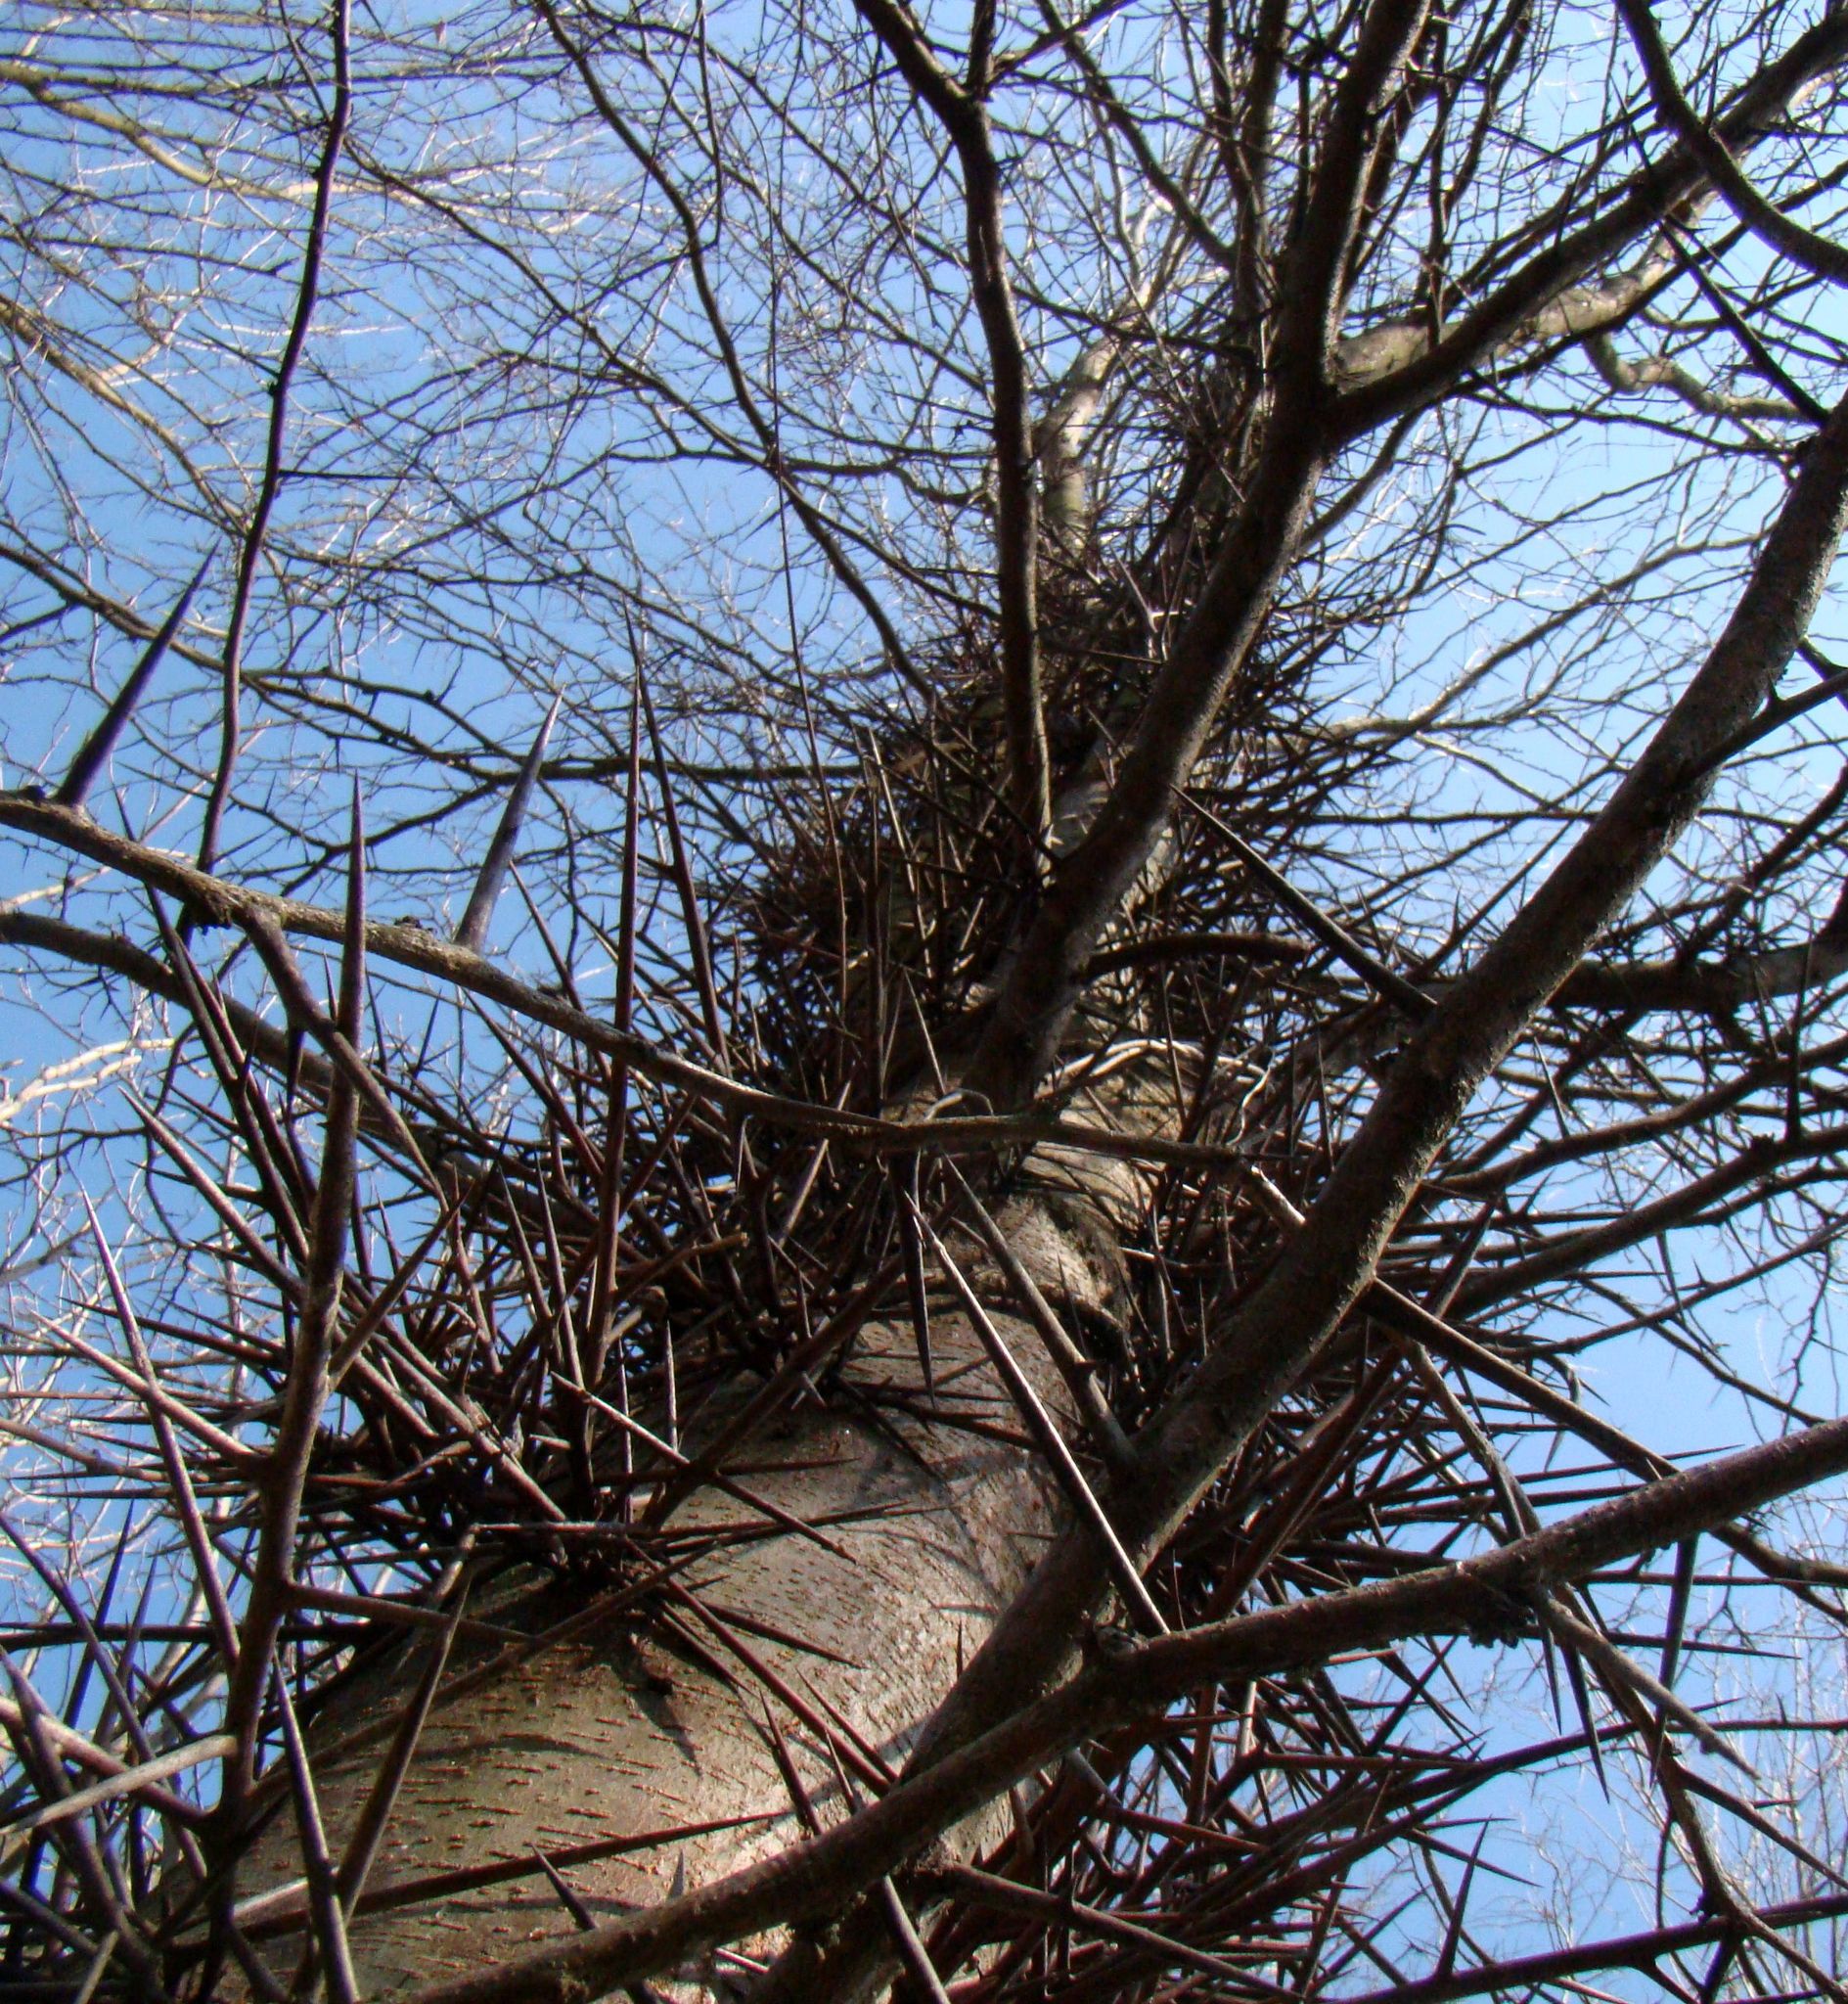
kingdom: Plantae
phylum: Tracheophyta
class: Magnoliopsida
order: Fabales
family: Fabaceae
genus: Gleditsia
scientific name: Gleditsia triacanthos
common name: Common honeylocust
